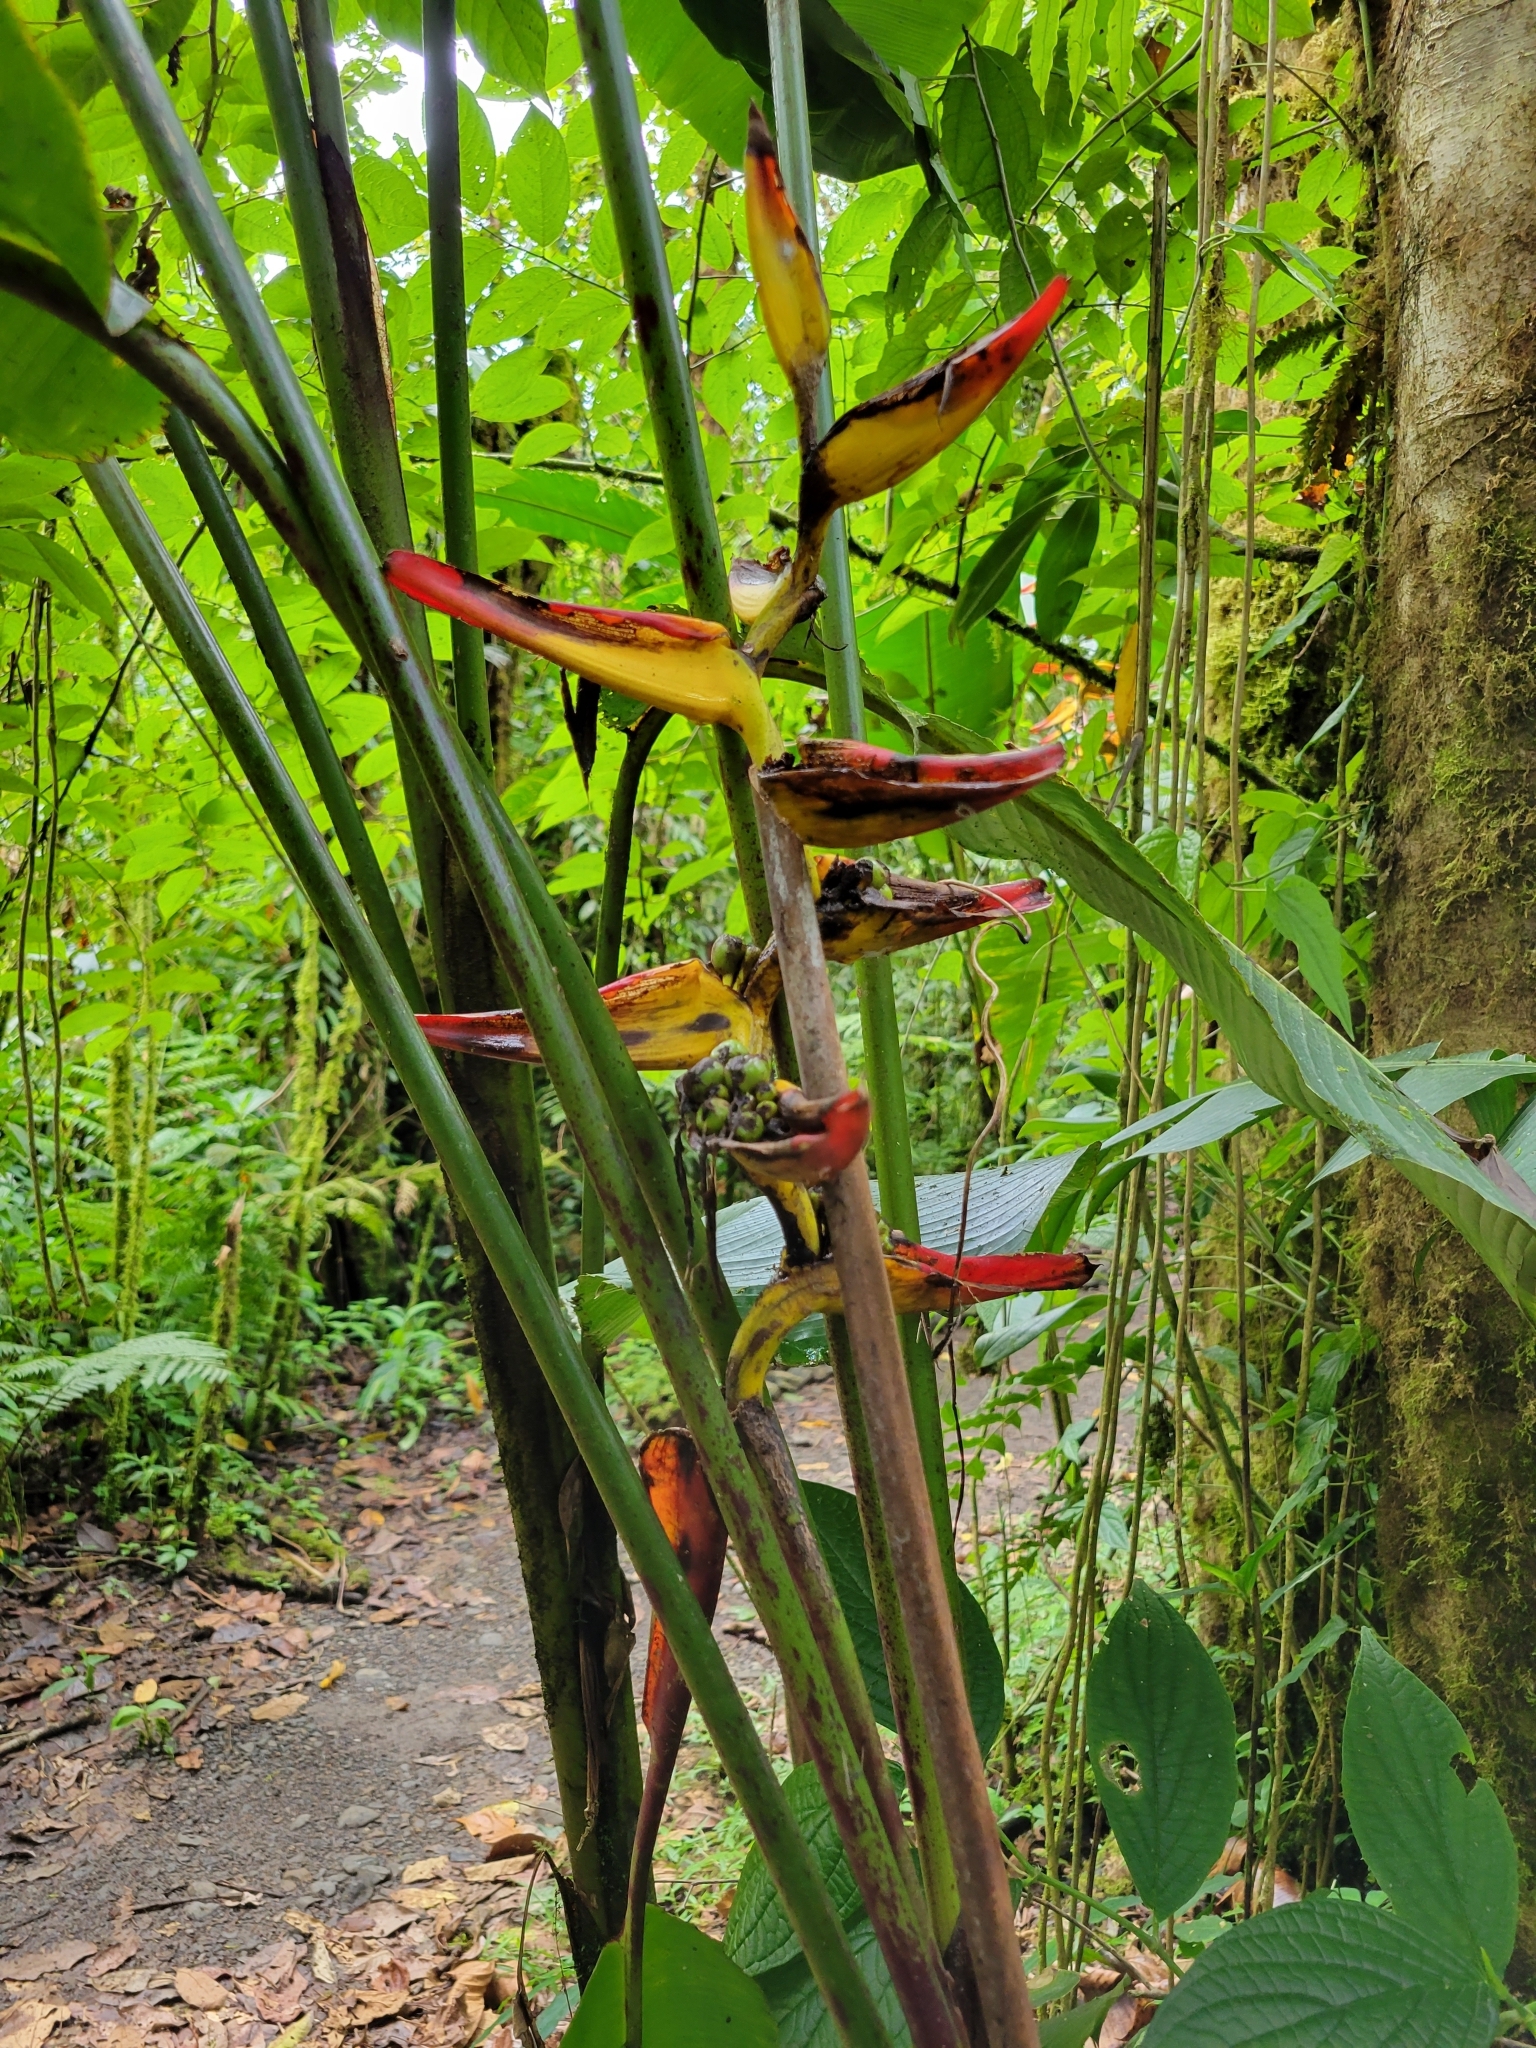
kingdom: Plantae
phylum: Tracheophyta
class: Liliopsida
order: Zingiberales
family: Heliconiaceae
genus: Heliconia
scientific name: Heliconia tortuosa
